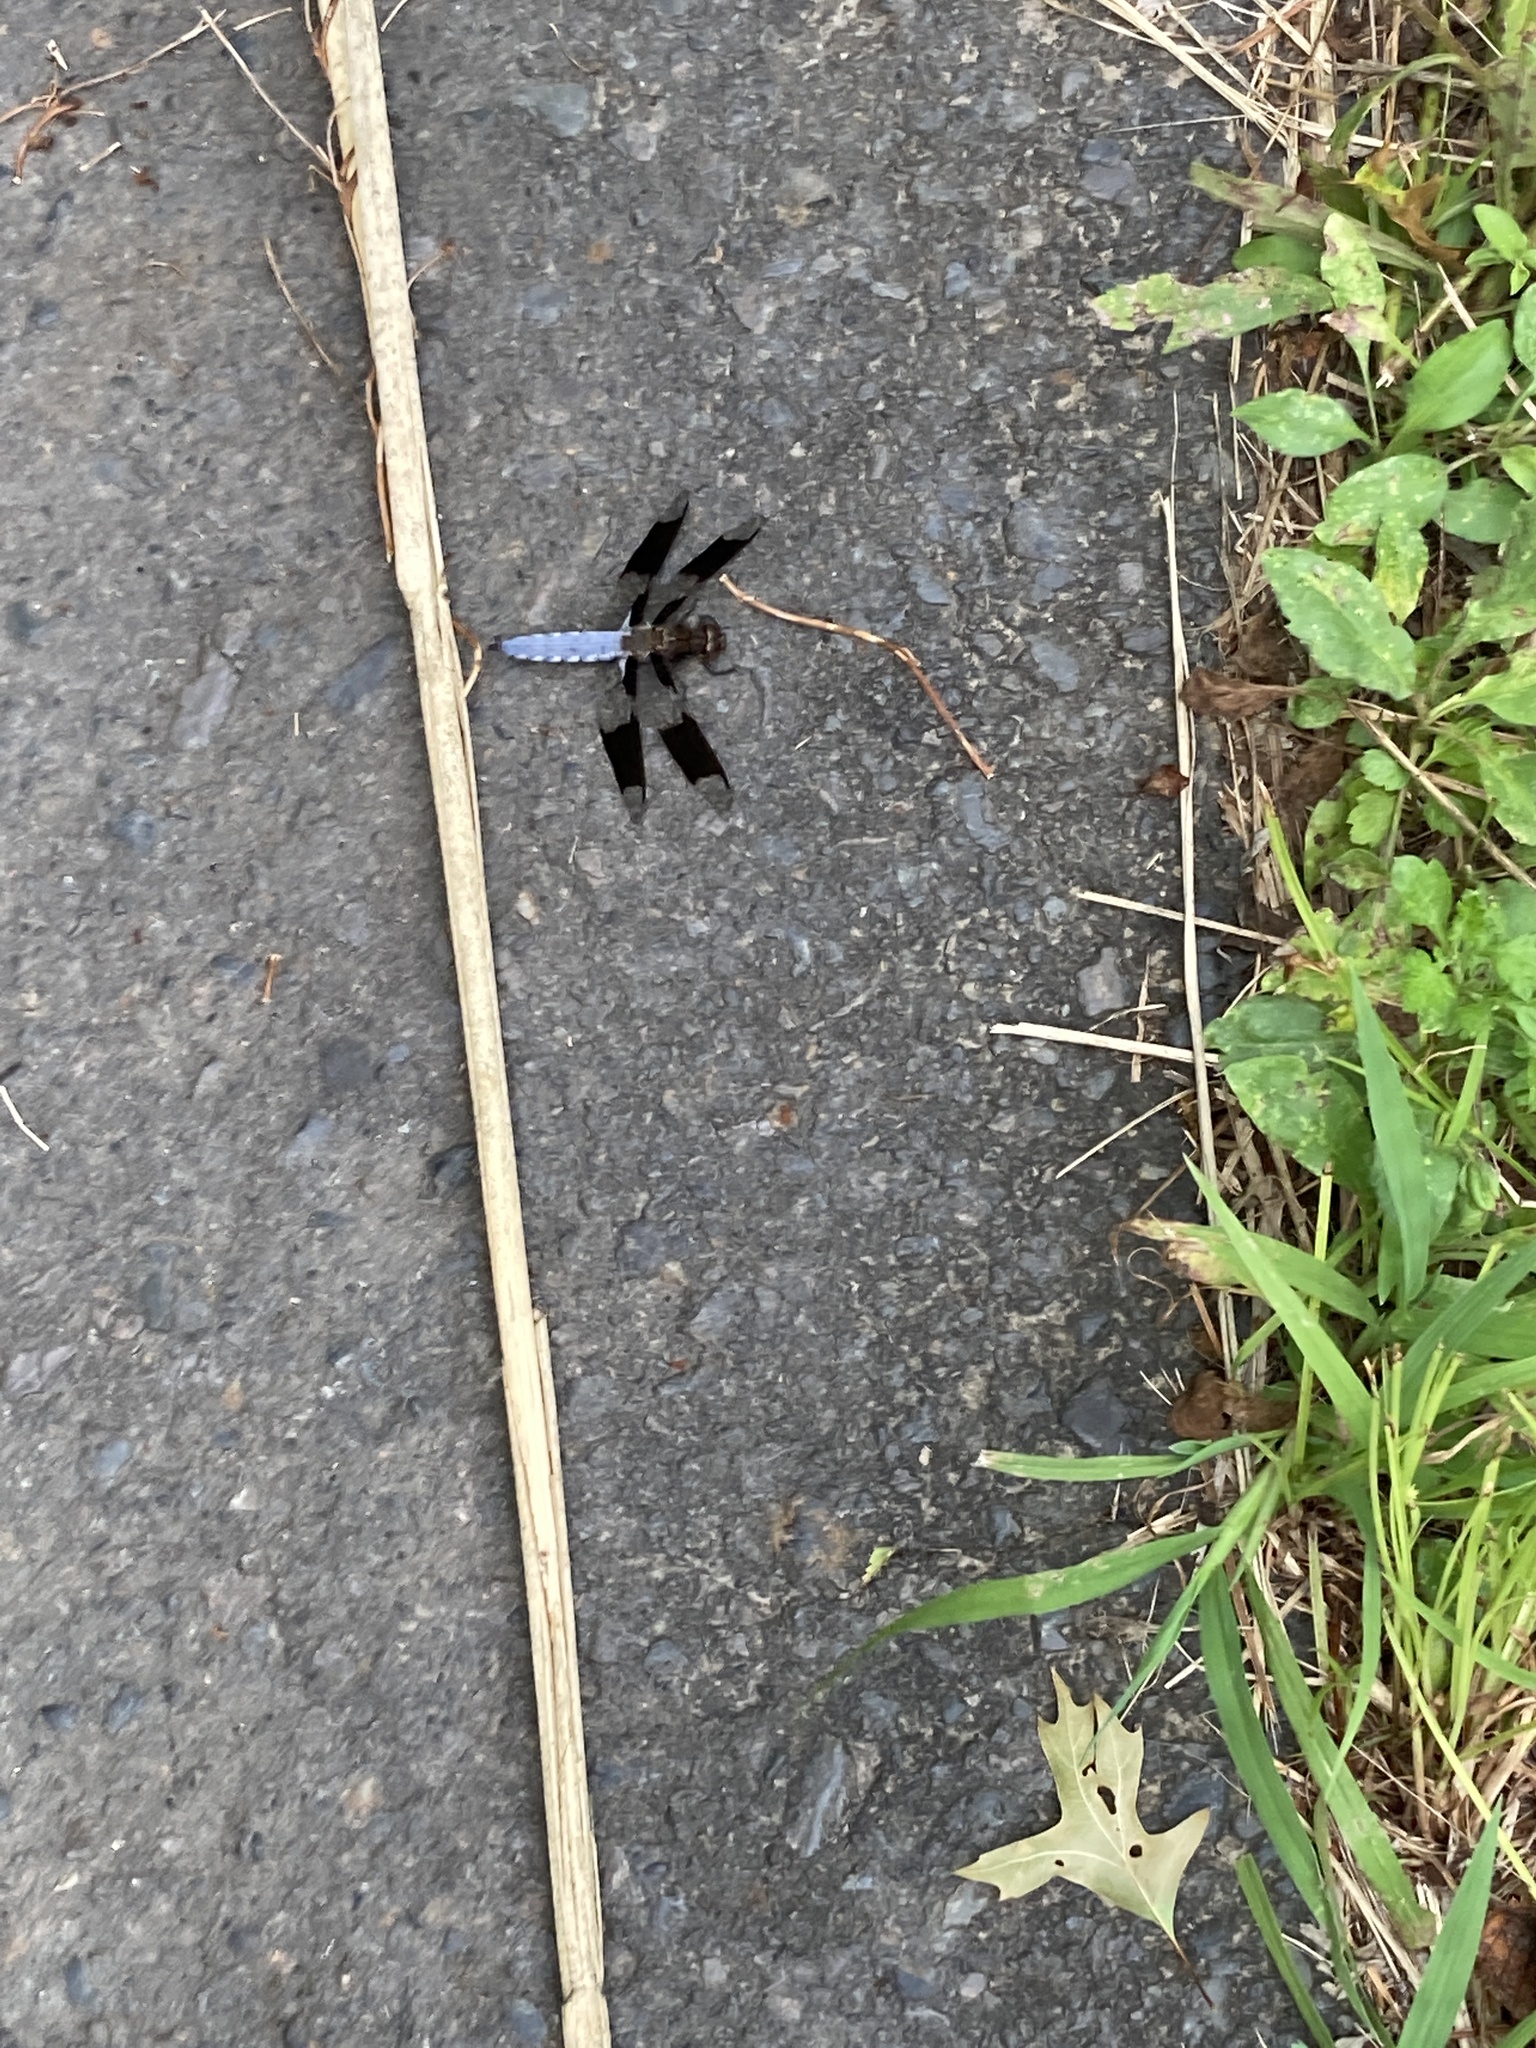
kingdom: Animalia
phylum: Arthropoda
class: Insecta
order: Odonata
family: Libellulidae
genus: Plathemis
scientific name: Plathemis lydia
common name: Common whitetail
